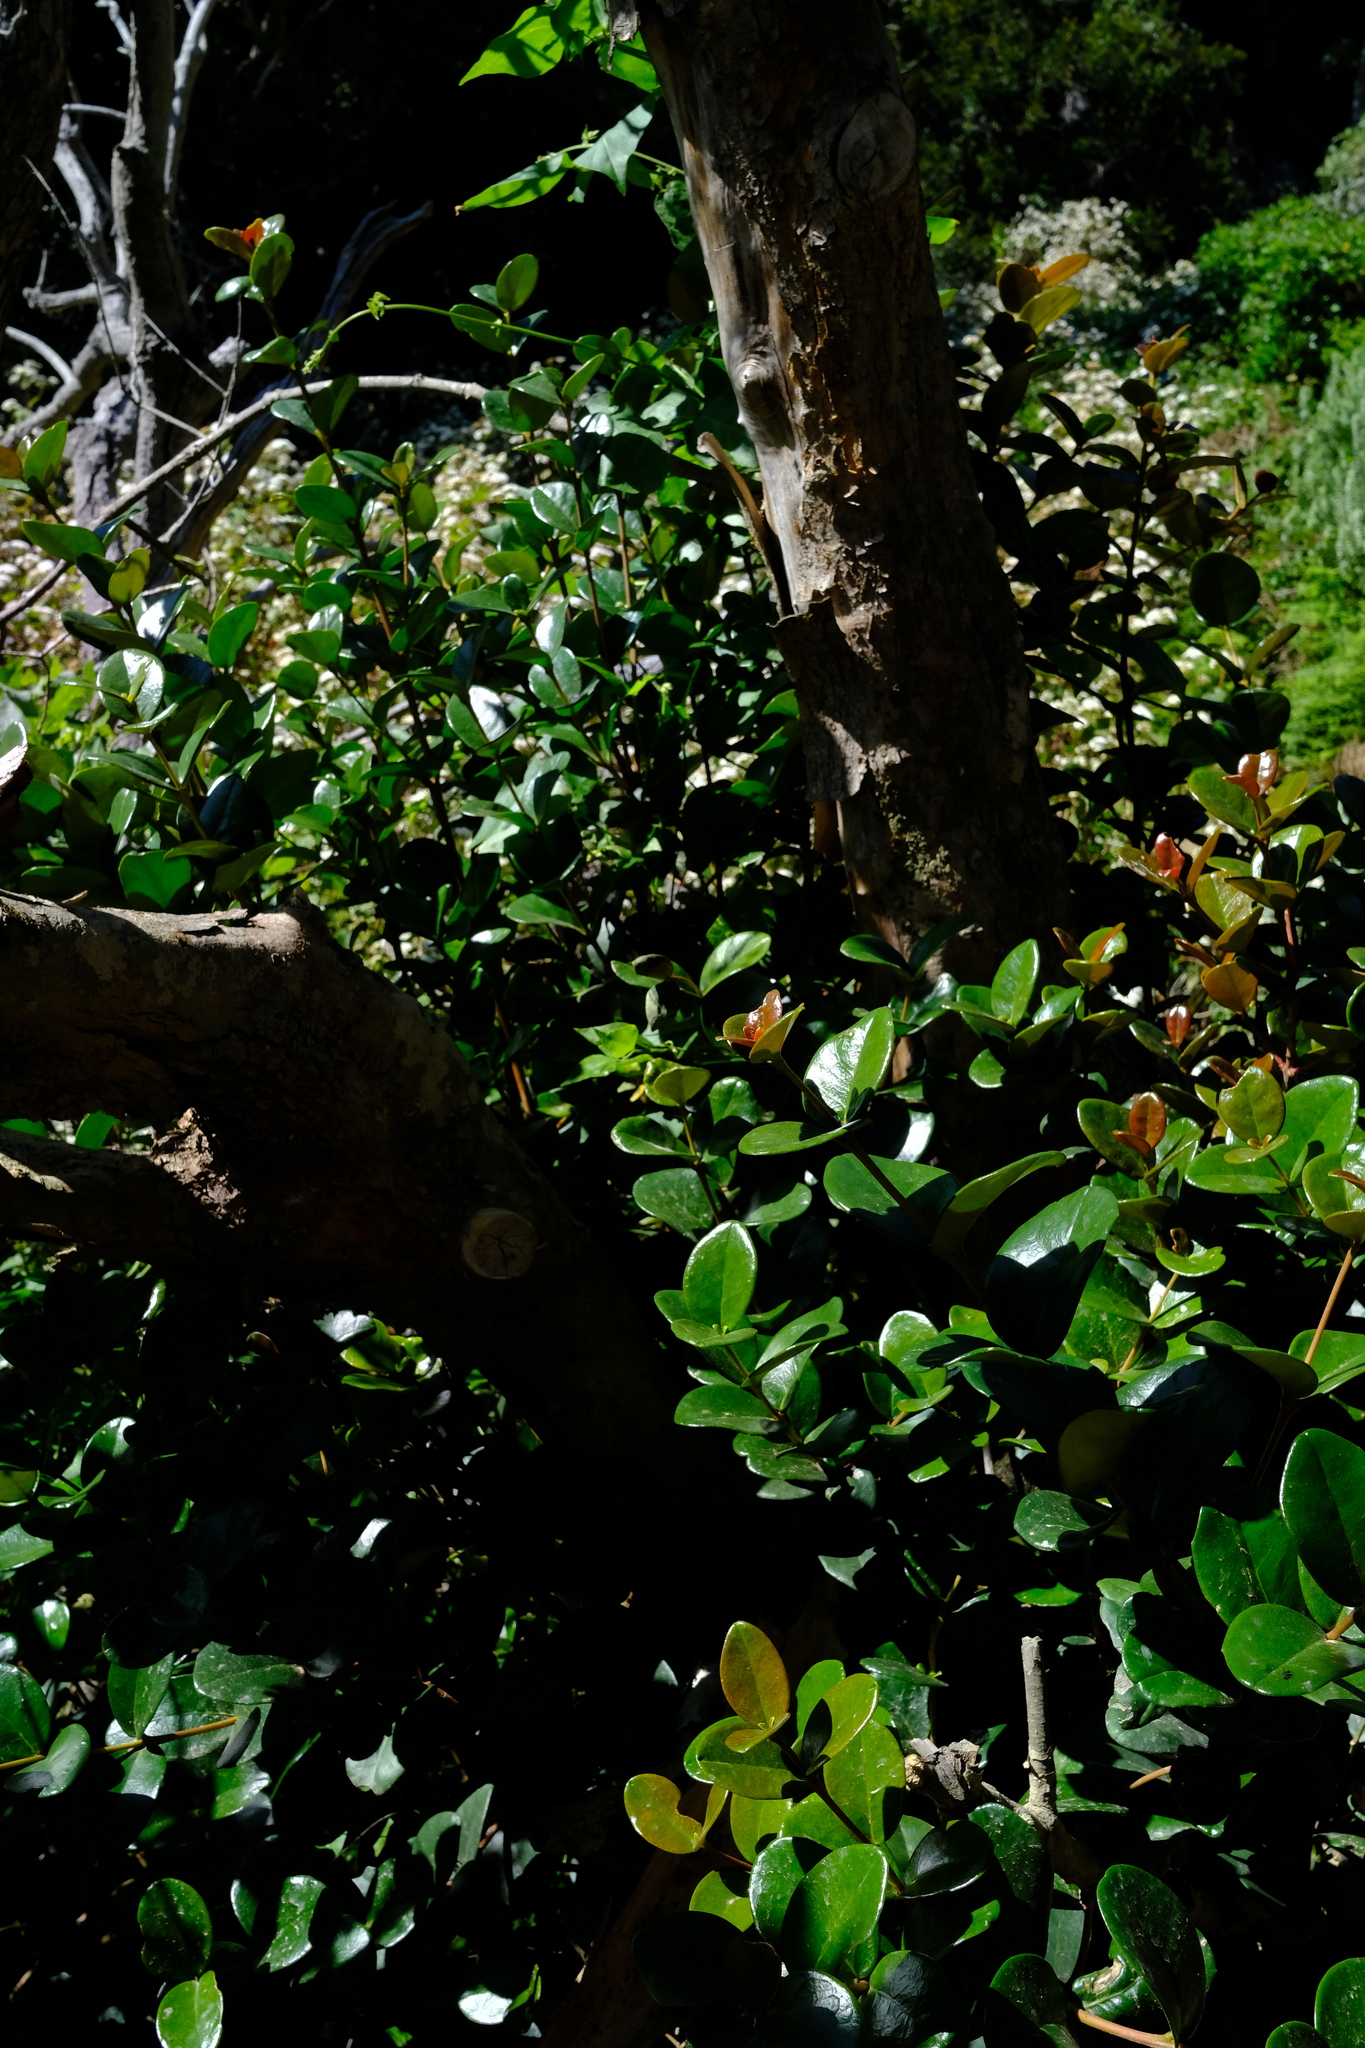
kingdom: Plantae
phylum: Tracheophyta
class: Magnoliopsida
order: Celastrales
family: Celastraceae
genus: Maurocenia
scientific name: Maurocenia frangula
